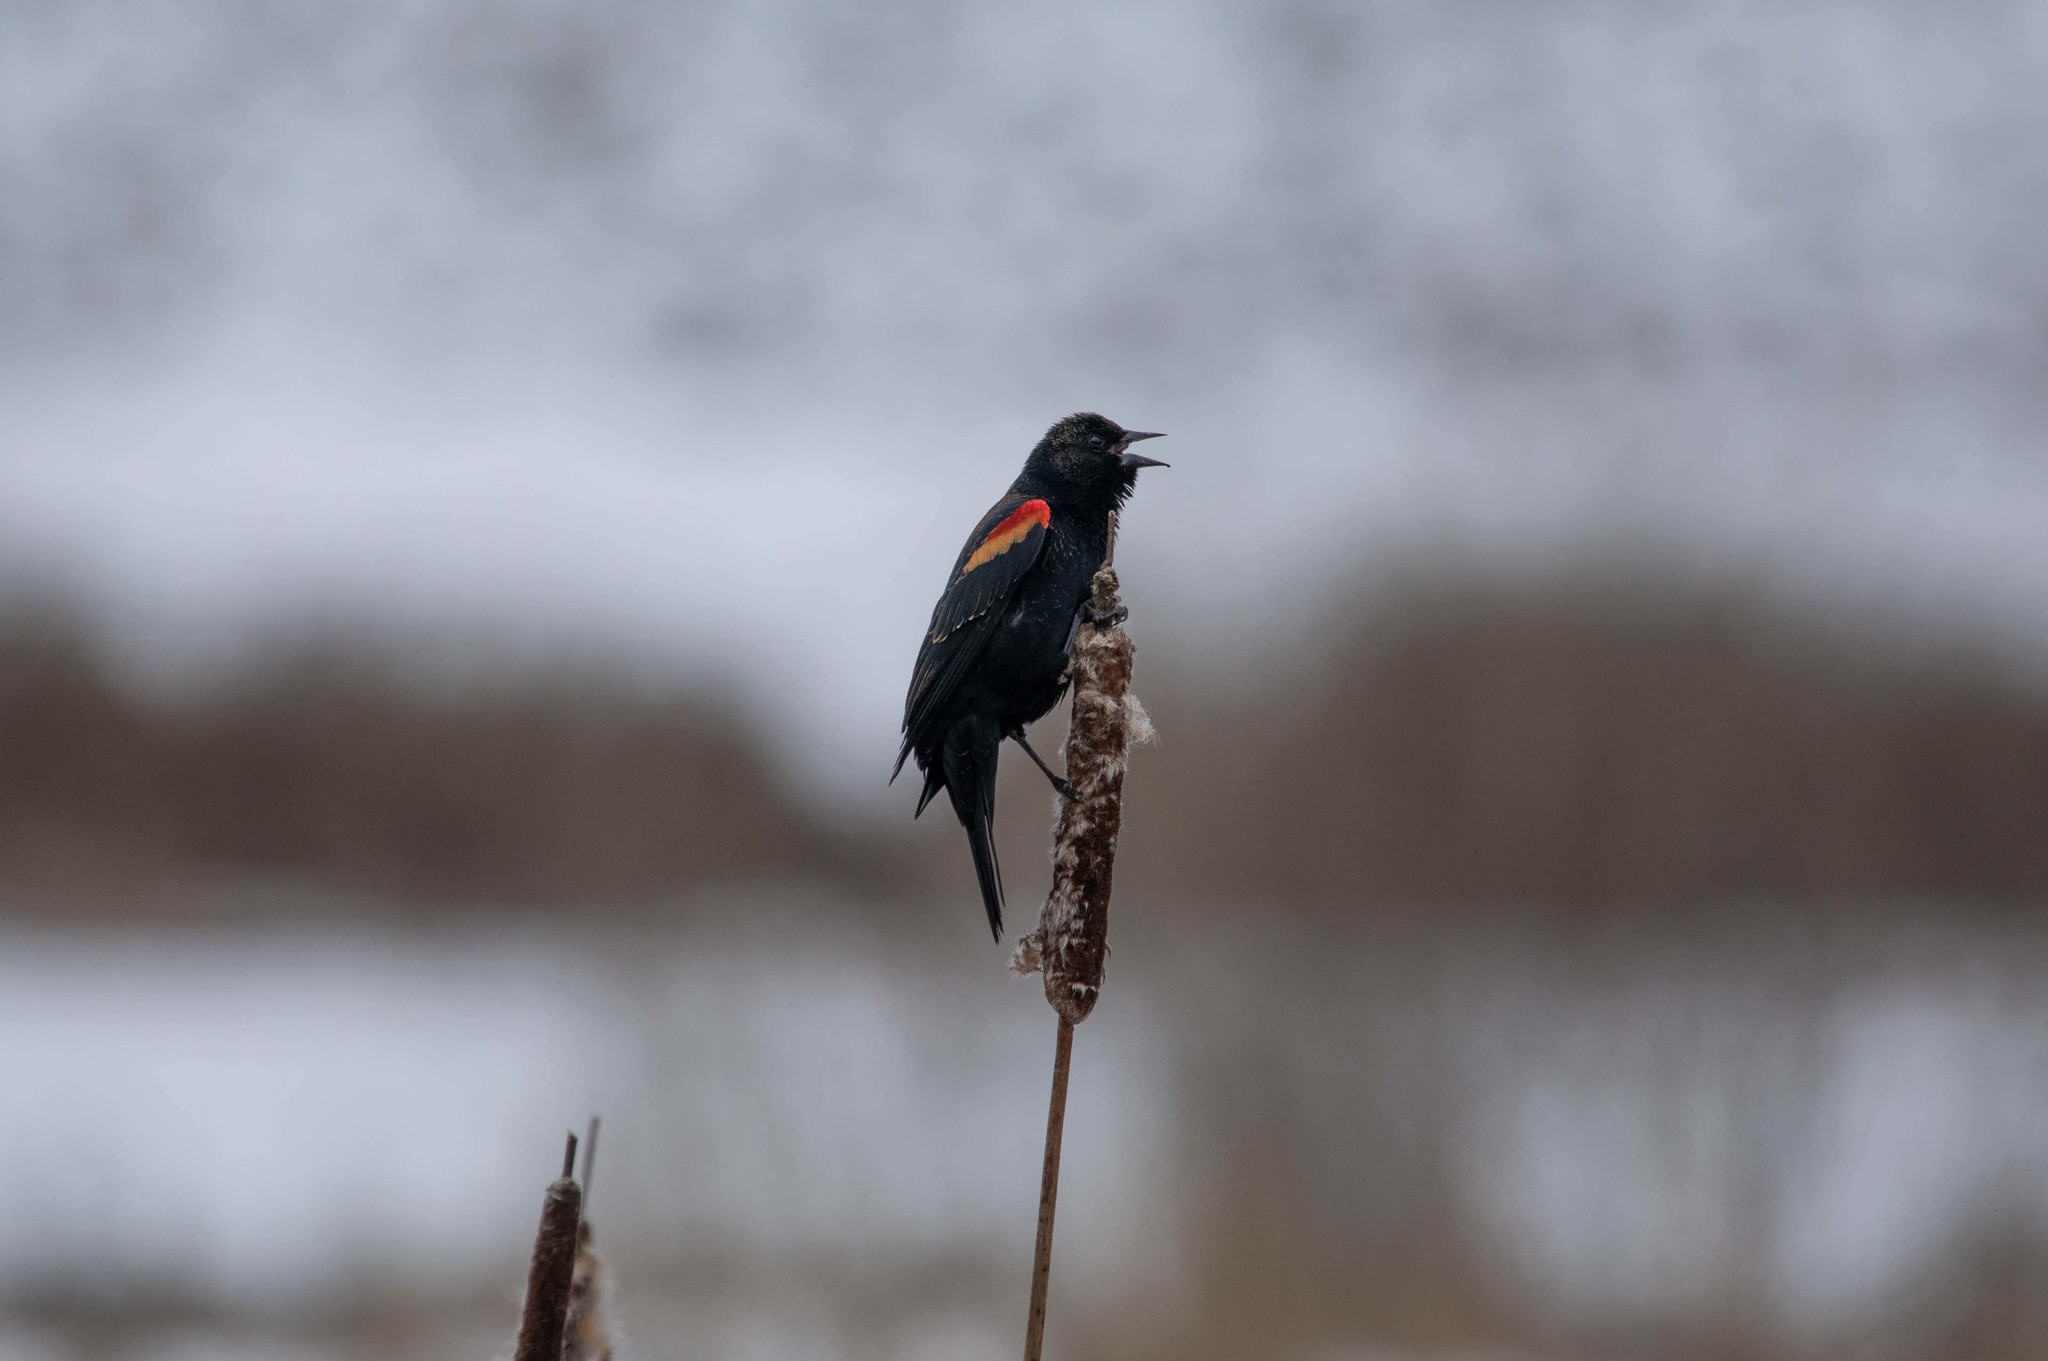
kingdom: Animalia
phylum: Chordata
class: Aves
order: Passeriformes
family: Icteridae
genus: Agelaius
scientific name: Agelaius phoeniceus
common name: Red-winged blackbird
